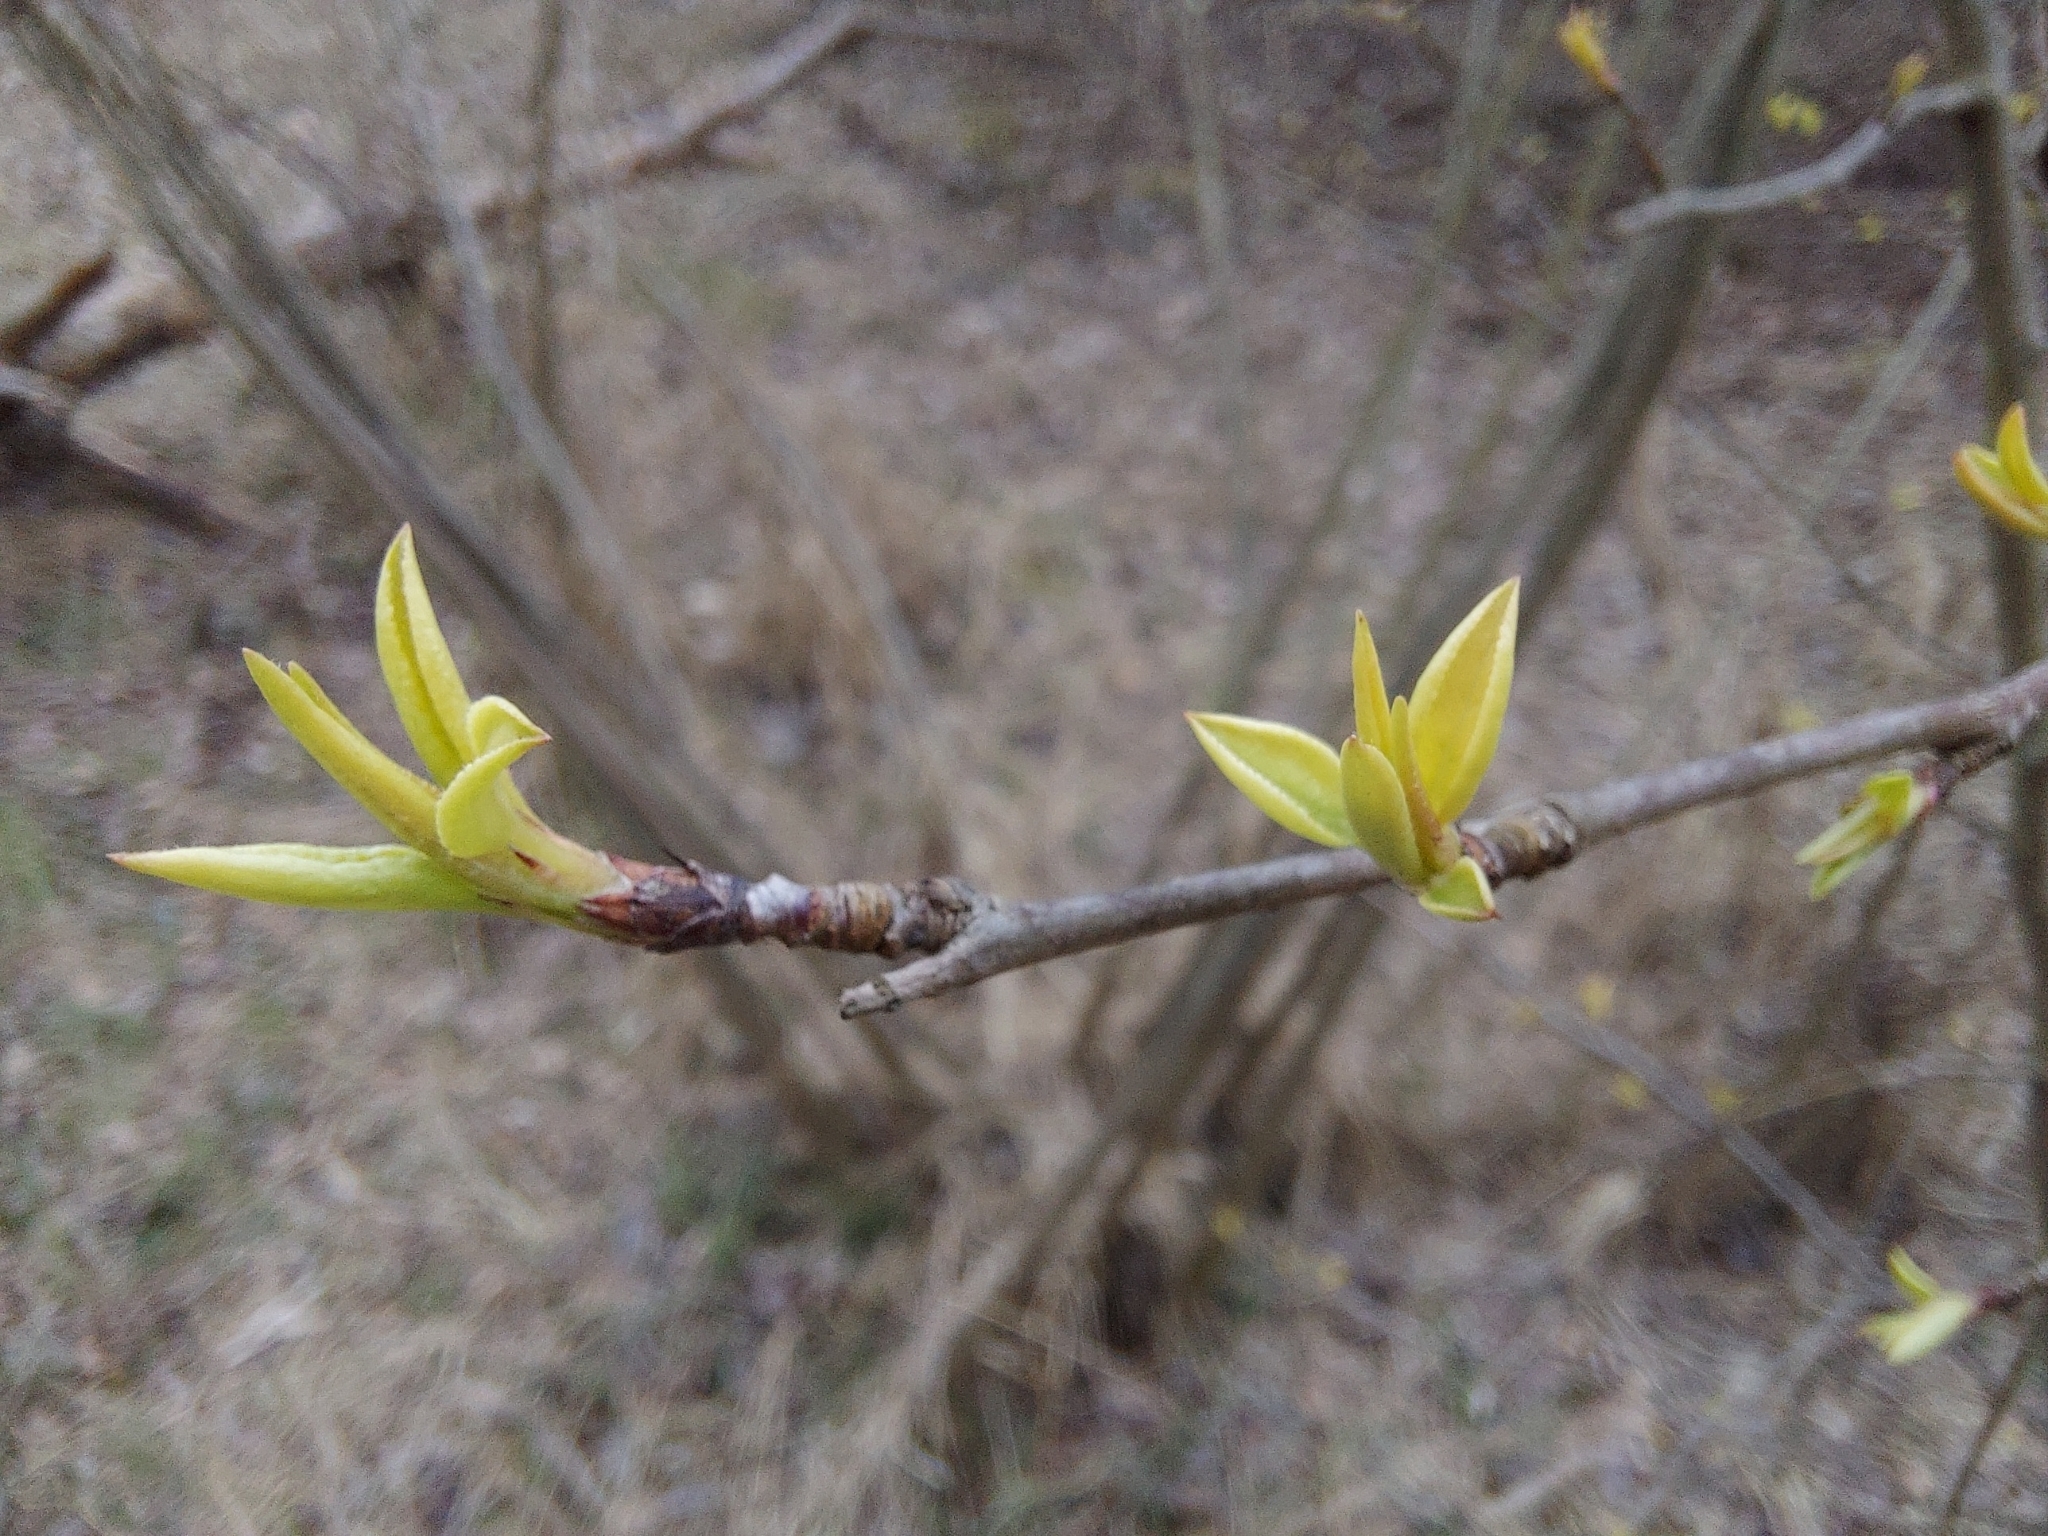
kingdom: Plantae
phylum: Tracheophyta
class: Magnoliopsida
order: Rosales
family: Rosaceae
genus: Prunus
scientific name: Prunus serotina
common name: Black cherry
